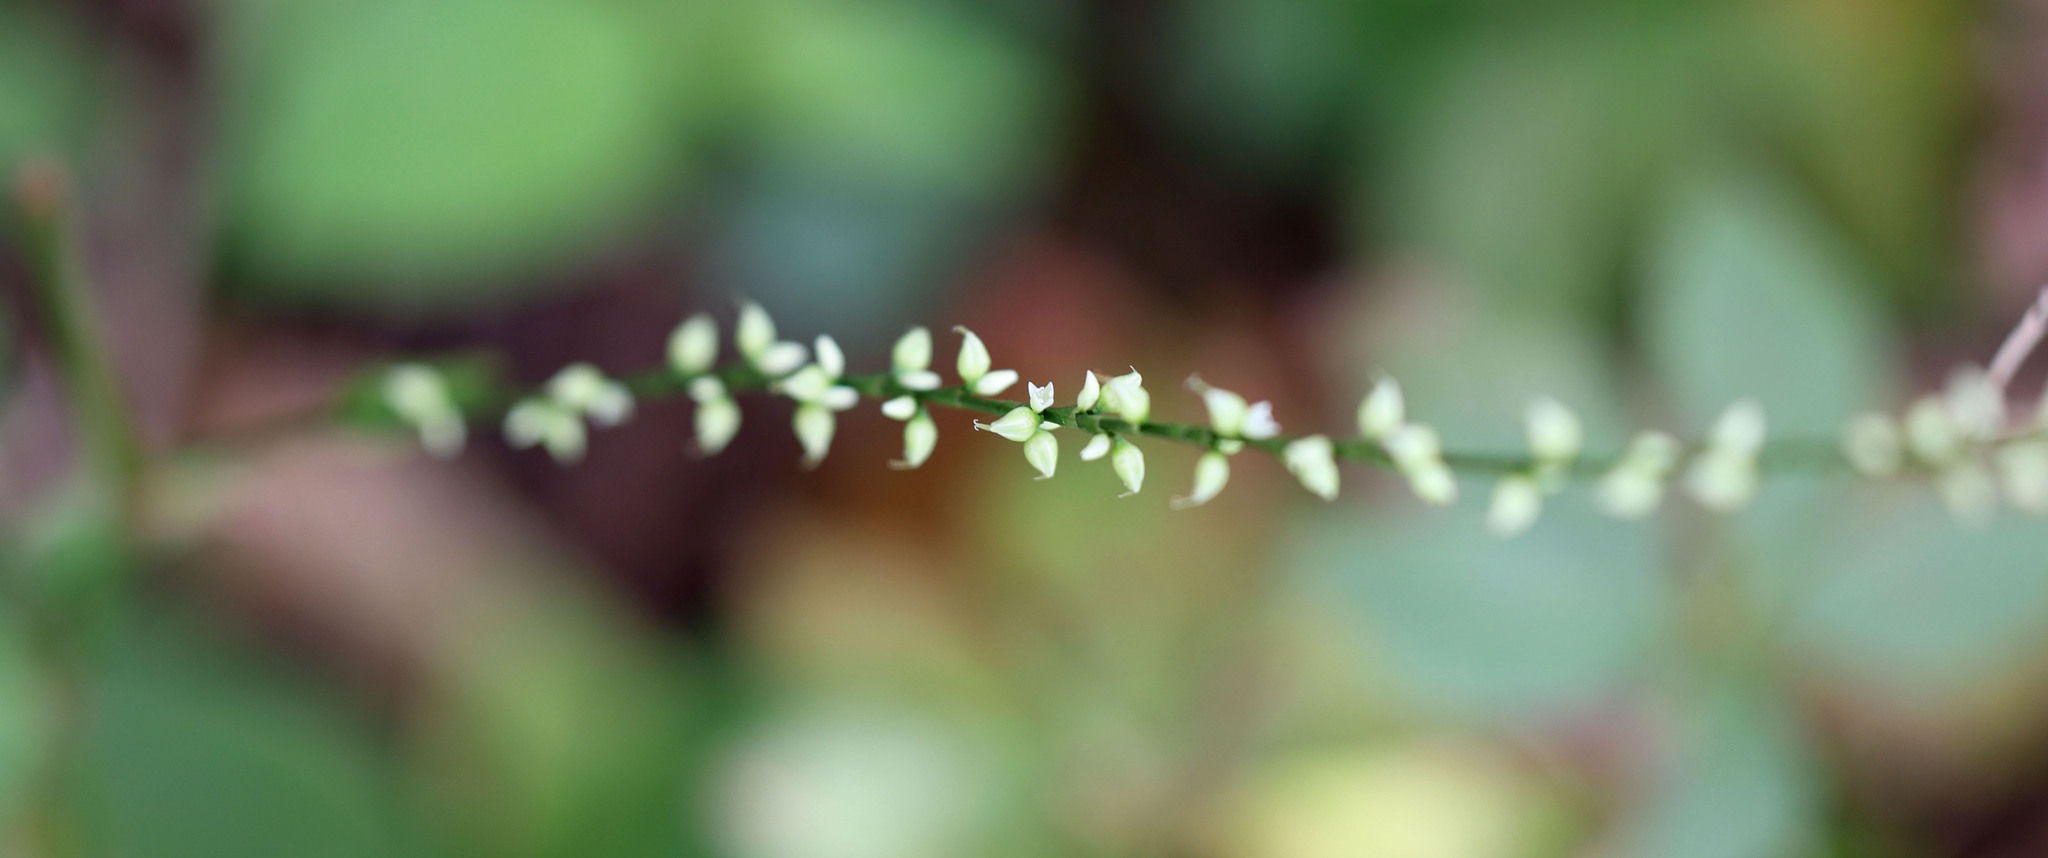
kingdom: Plantae
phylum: Tracheophyta
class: Magnoliopsida
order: Caryophyllales
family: Polygonaceae
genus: Persicaria
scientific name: Persicaria virginiana
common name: Jumpseed
